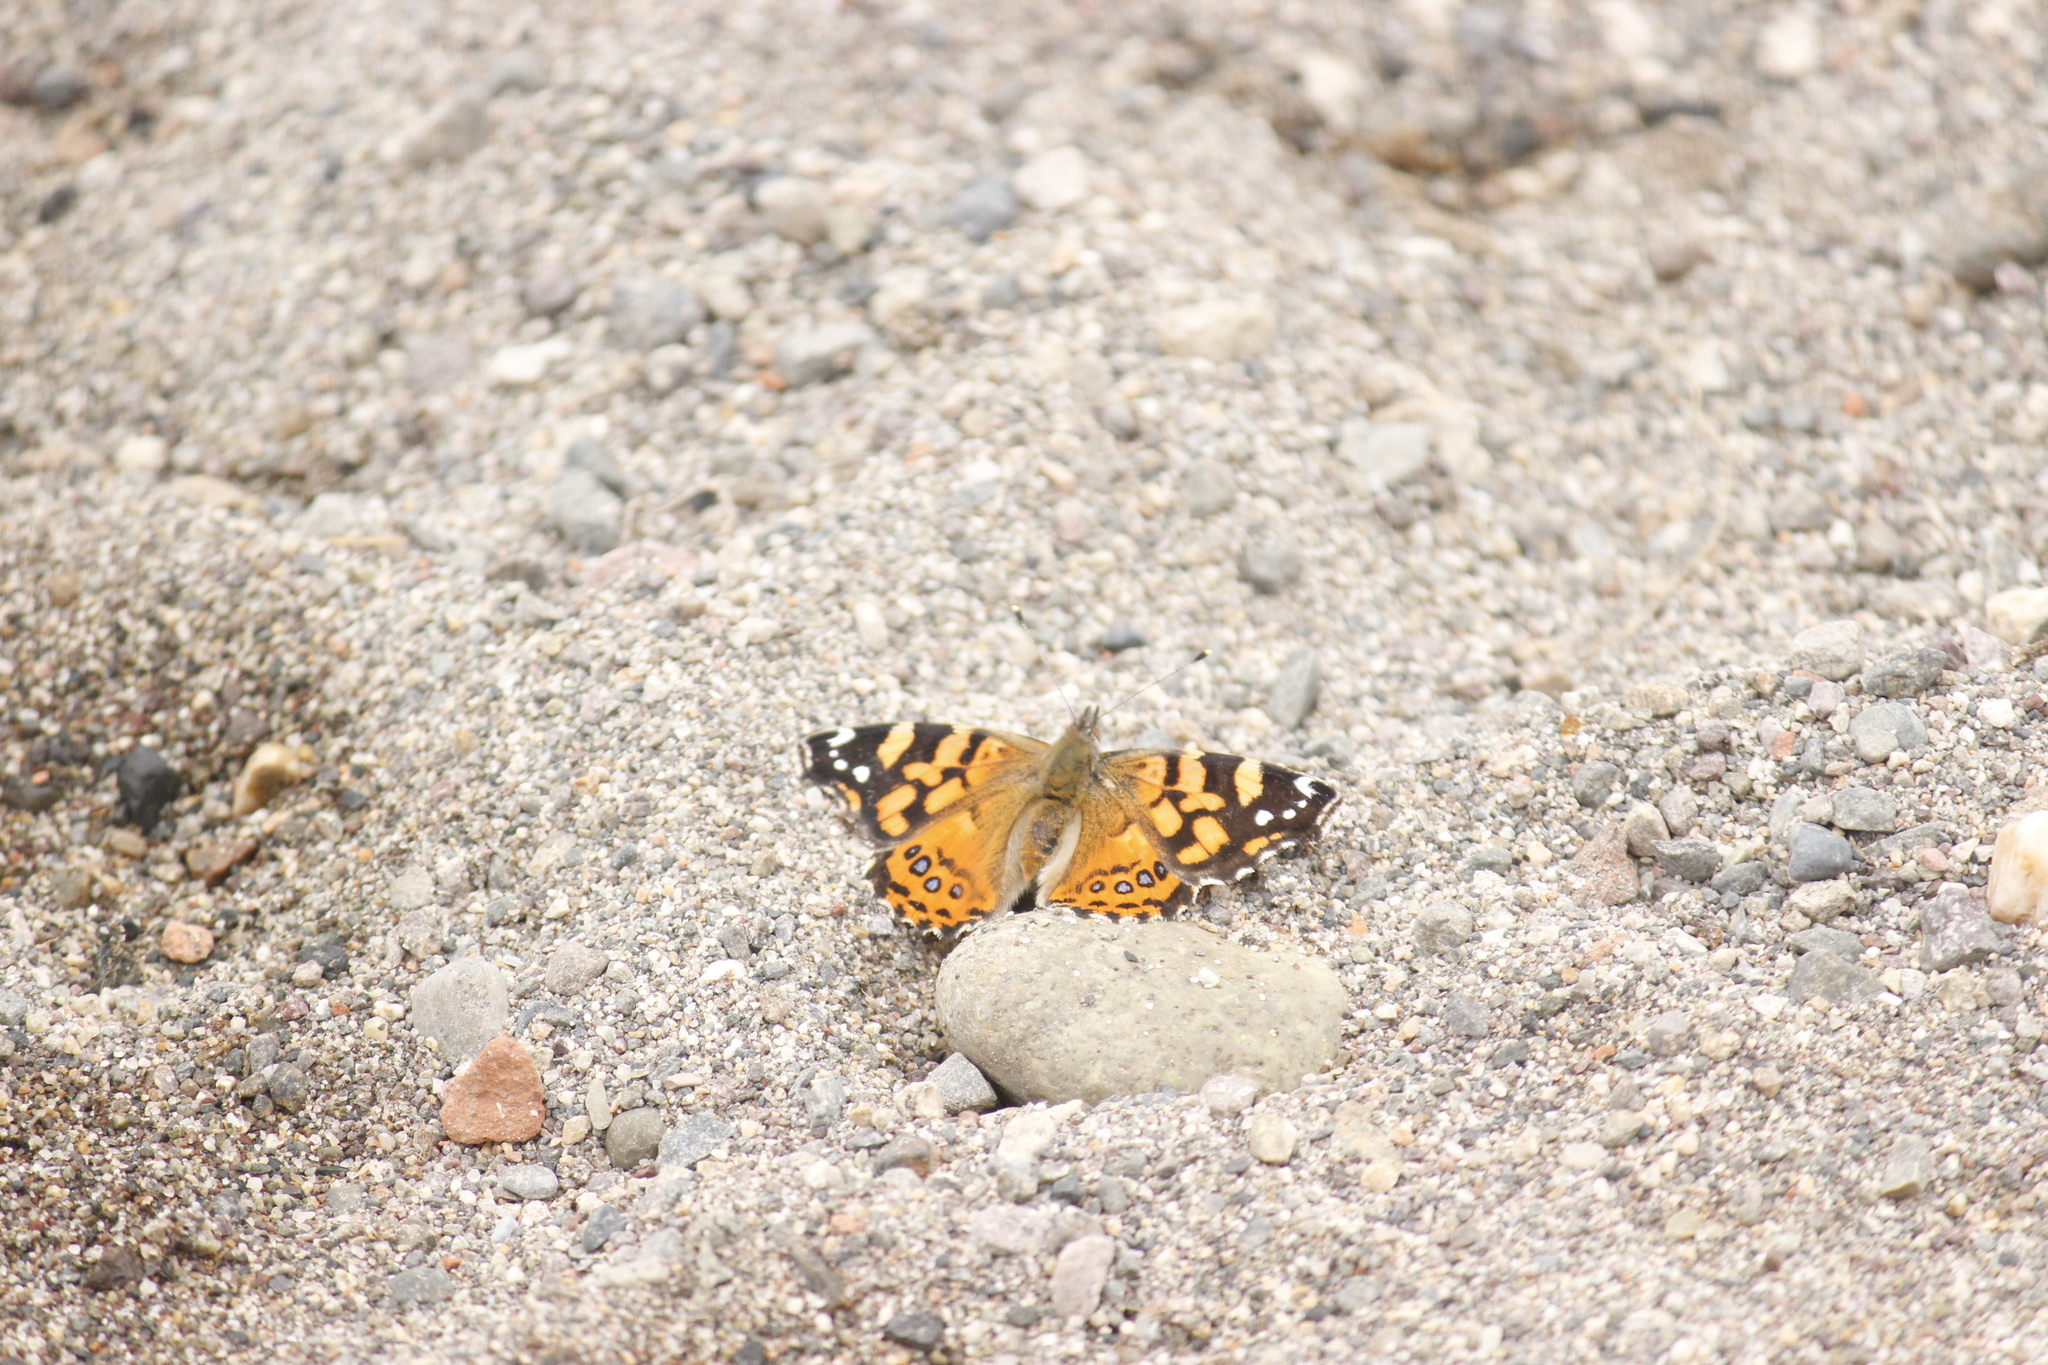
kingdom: Animalia
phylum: Arthropoda
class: Insecta
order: Lepidoptera
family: Nymphalidae
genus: Vanessa
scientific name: Vanessa carye
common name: Subtropical lady
